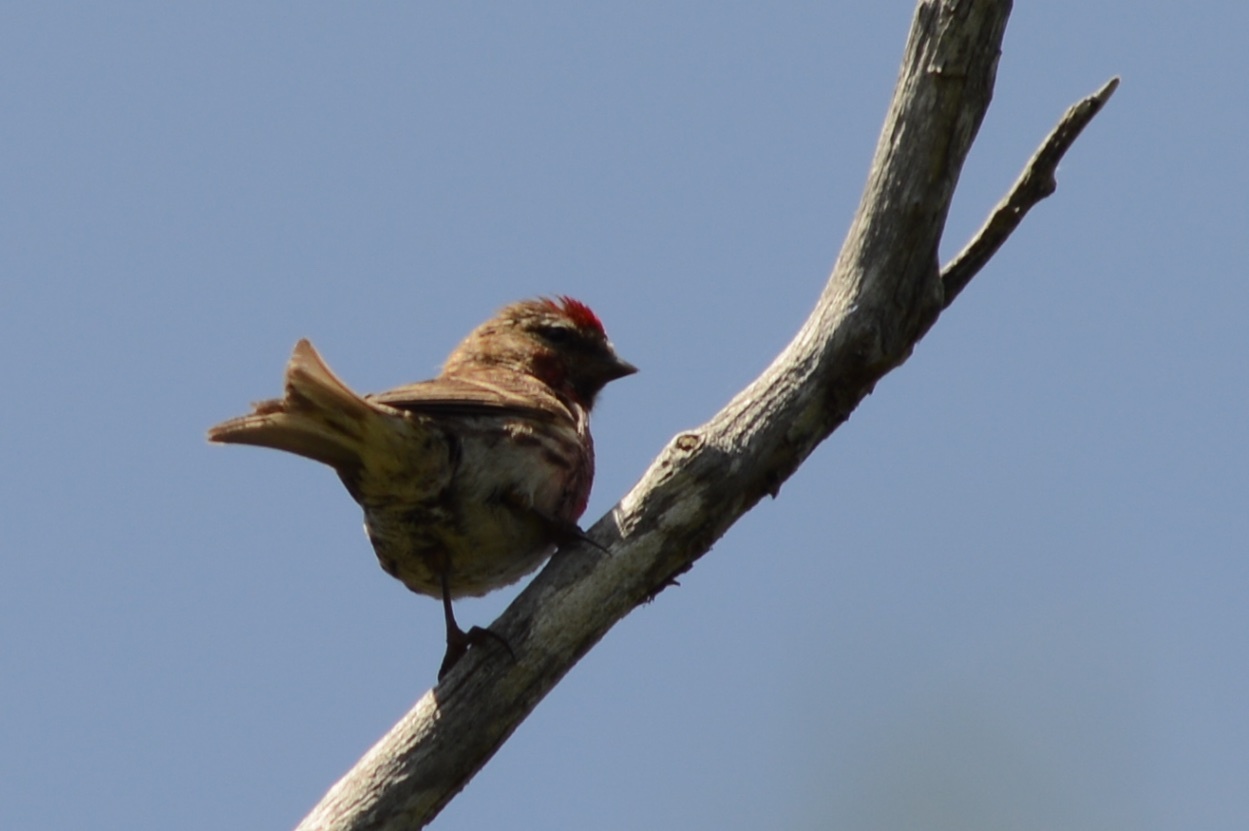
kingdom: Animalia
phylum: Chordata
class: Aves
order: Passeriformes
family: Fringillidae
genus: Acanthis
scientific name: Acanthis flammea
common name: Common redpoll
